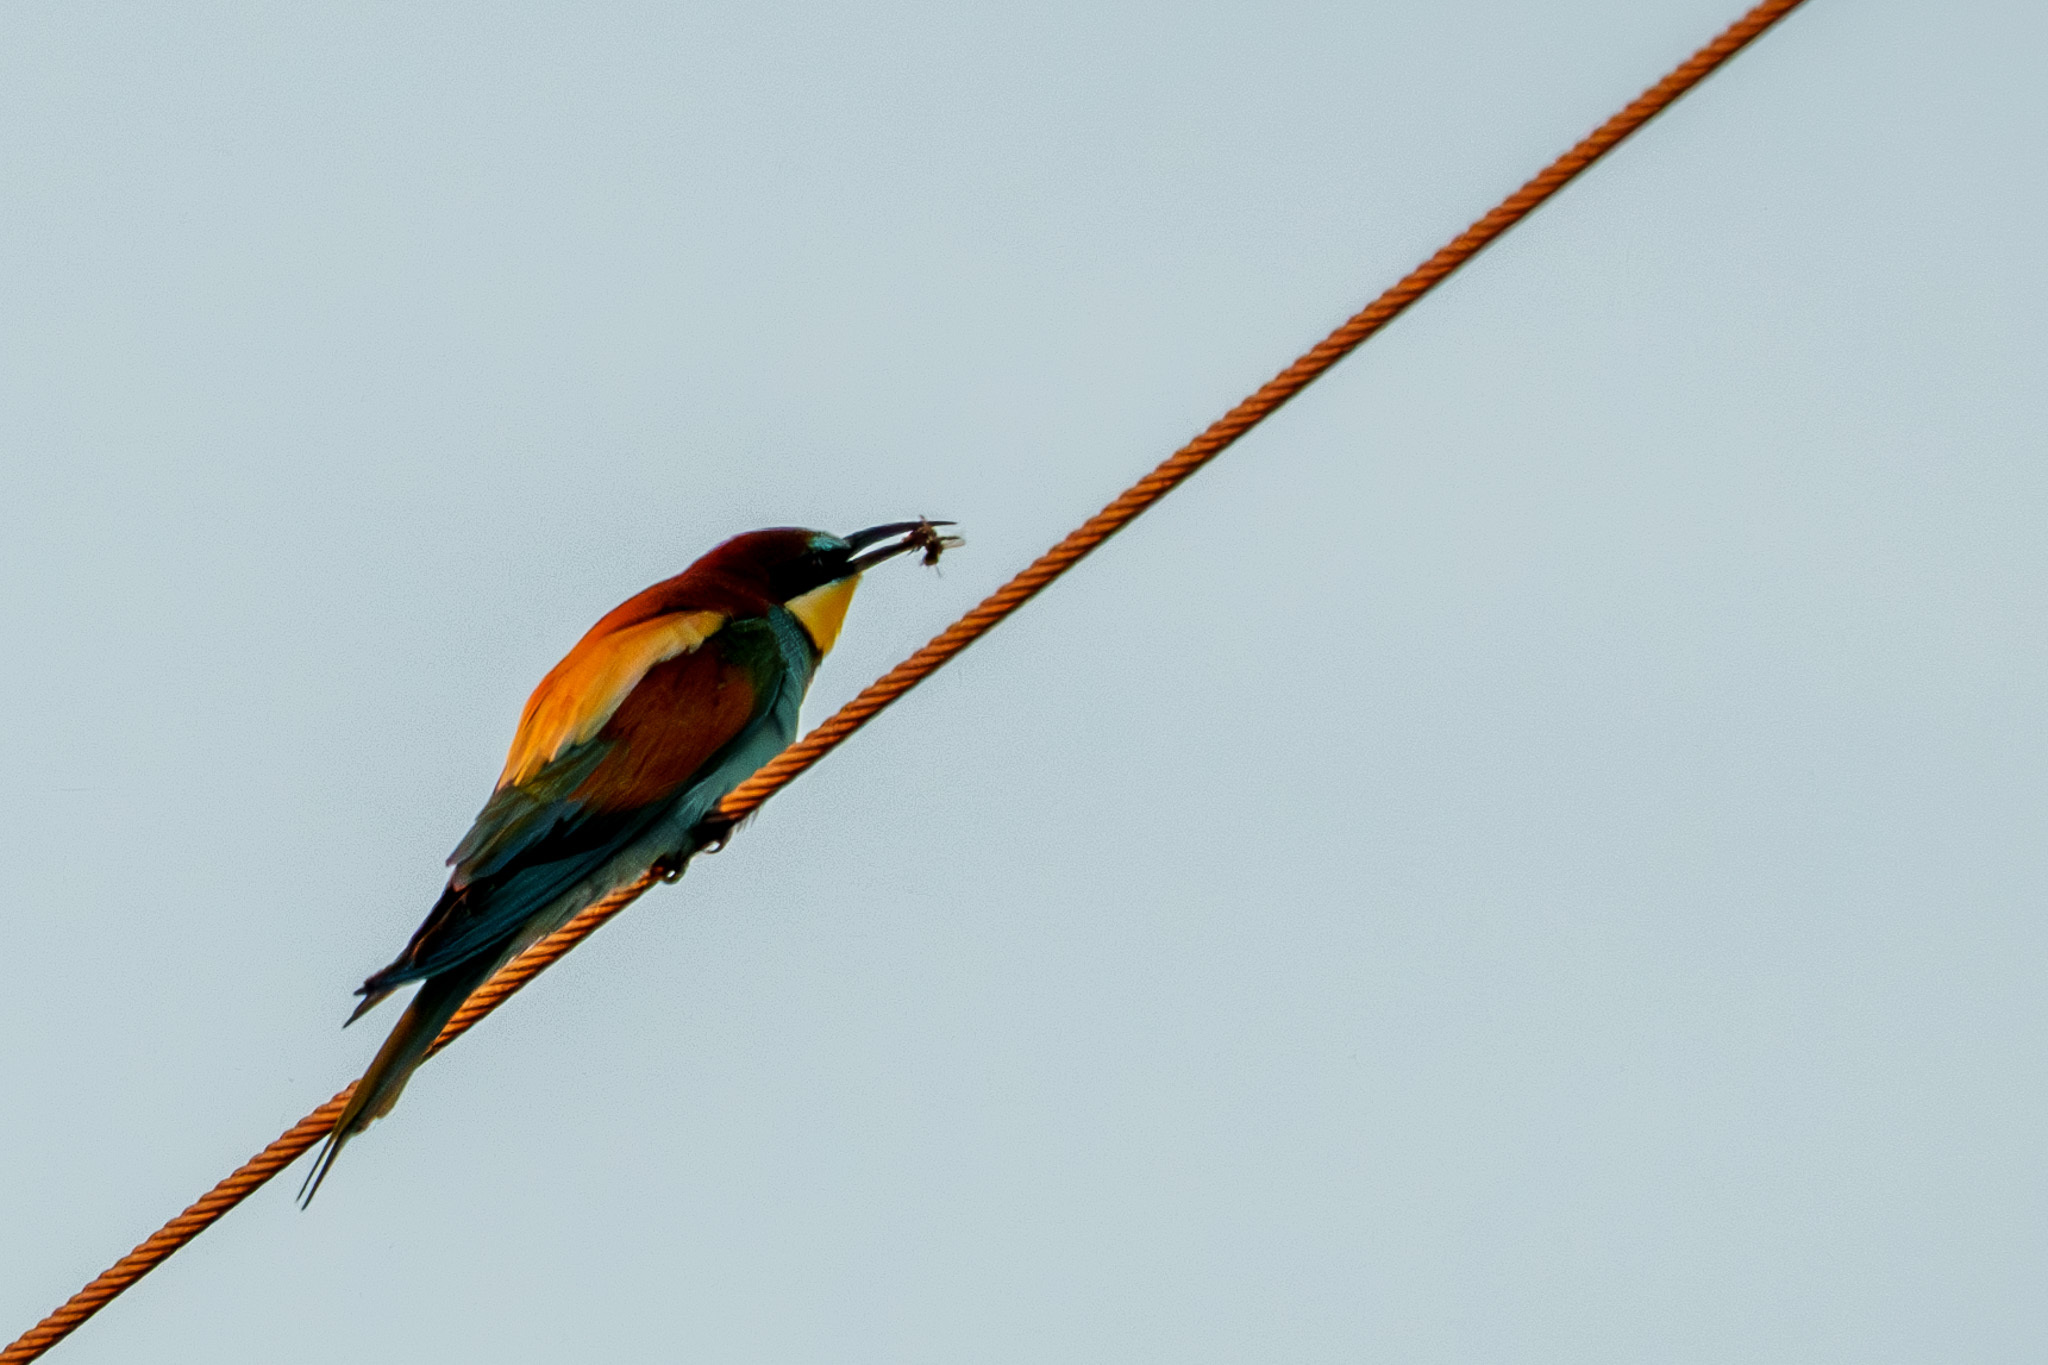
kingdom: Animalia
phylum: Chordata
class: Aves
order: Coraciiformes
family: Meropidae
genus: Merops
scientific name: Merops apiaster
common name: European bee-eater
